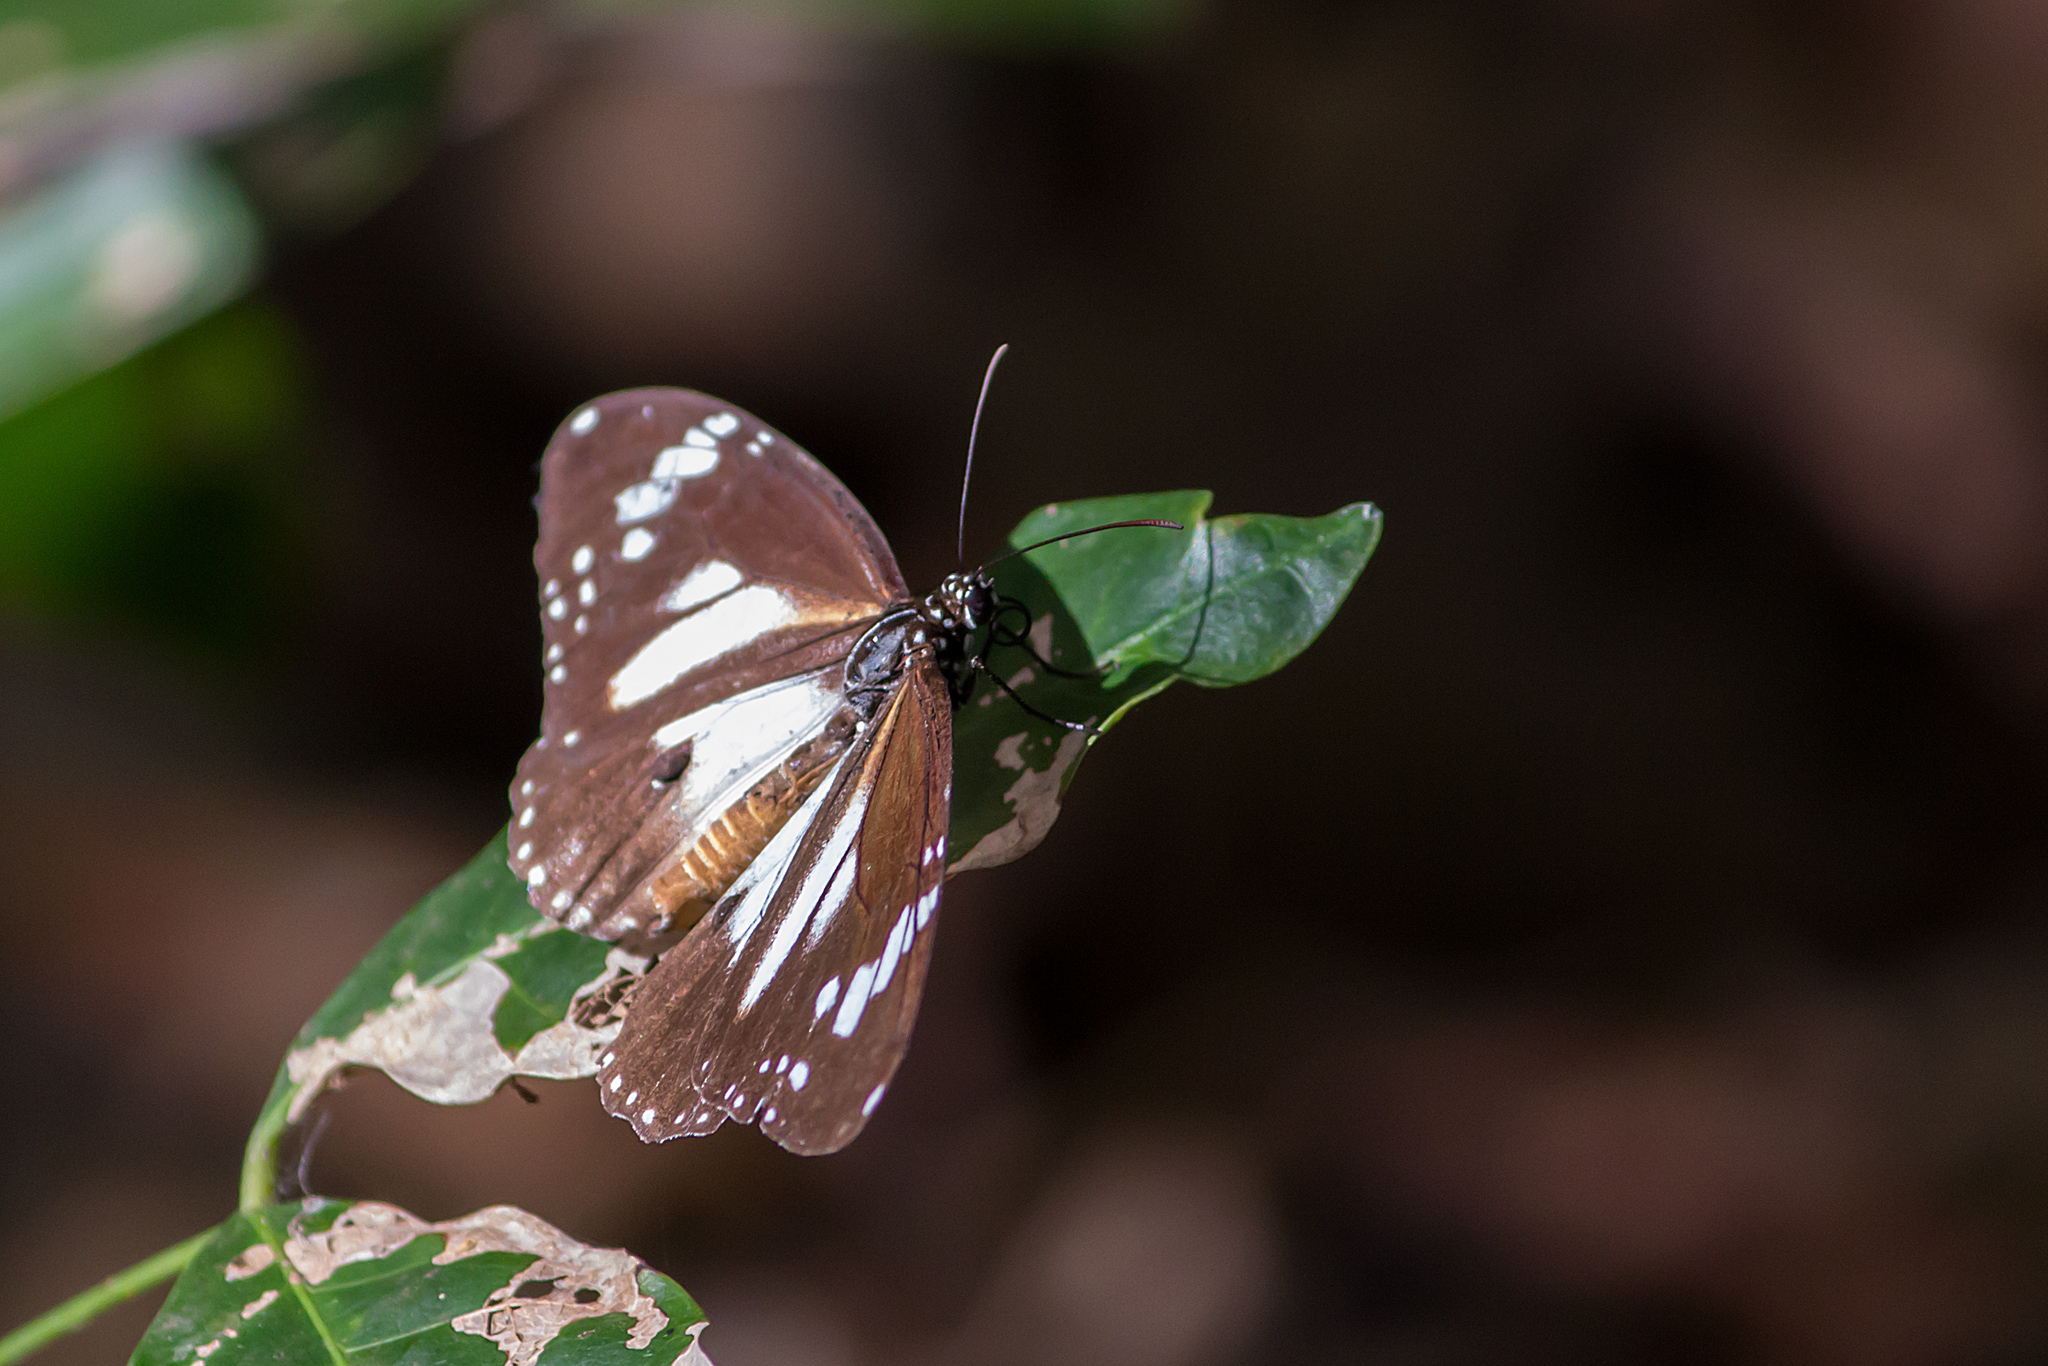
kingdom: Animalia
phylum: Arthropoda
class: Insecta
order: Lepidoptera
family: Nymphalidae
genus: Danaus
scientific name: Danaus affinis
